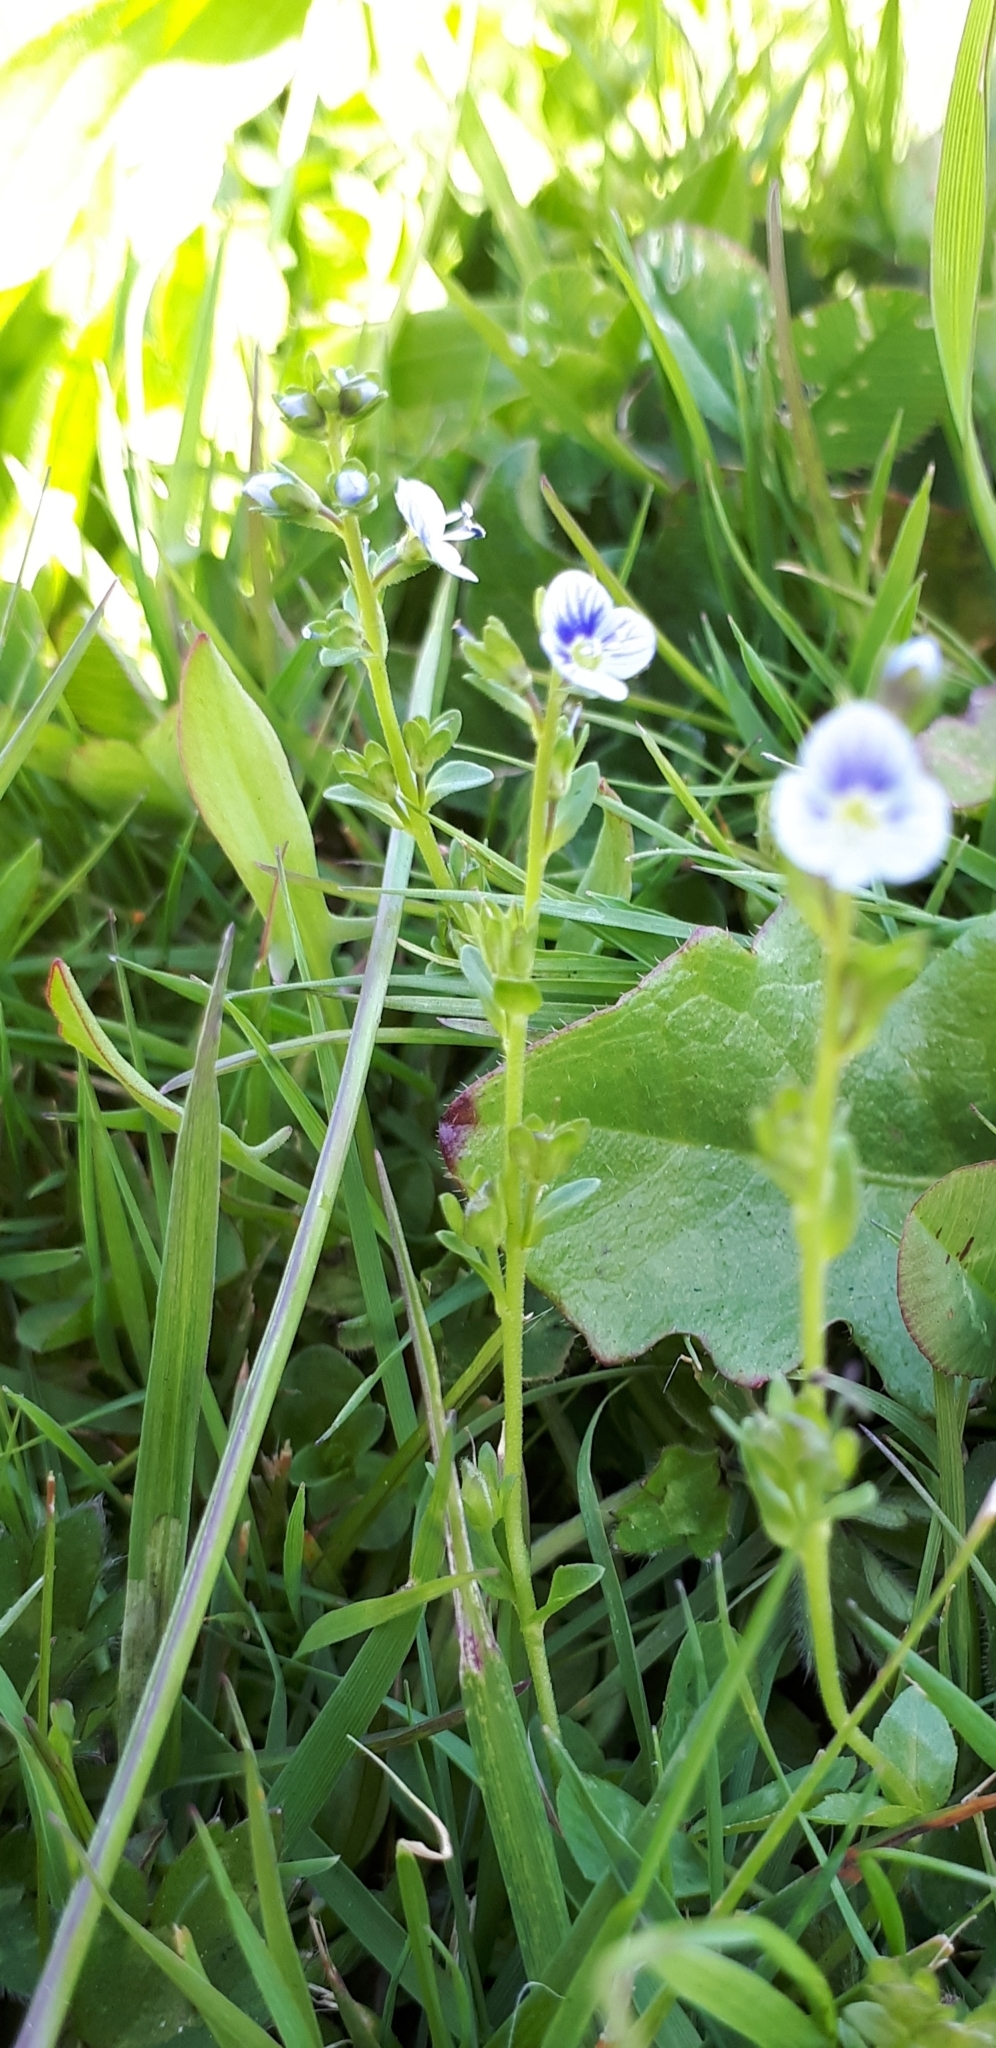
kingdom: Plantae
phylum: Tracheophyta
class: Magnoliopsida
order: Lamiales
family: Plantaginaceae
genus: Veronica
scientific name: Veronica serpyllifolia
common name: Thyme-leaved speedwell
